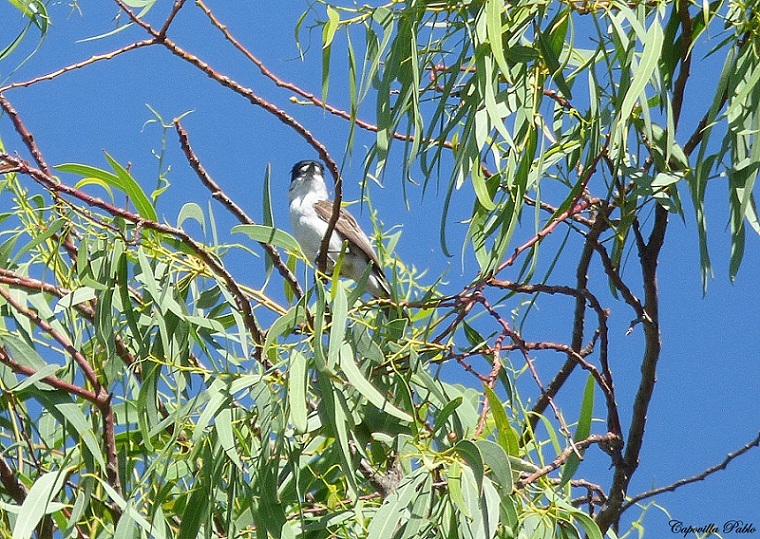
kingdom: Animalia
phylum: Chordata
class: Aves
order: Passeriformes
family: Cotingidae
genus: Xenopsaris
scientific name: Xenopsaris albinucha
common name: White-naped xenopsaris
